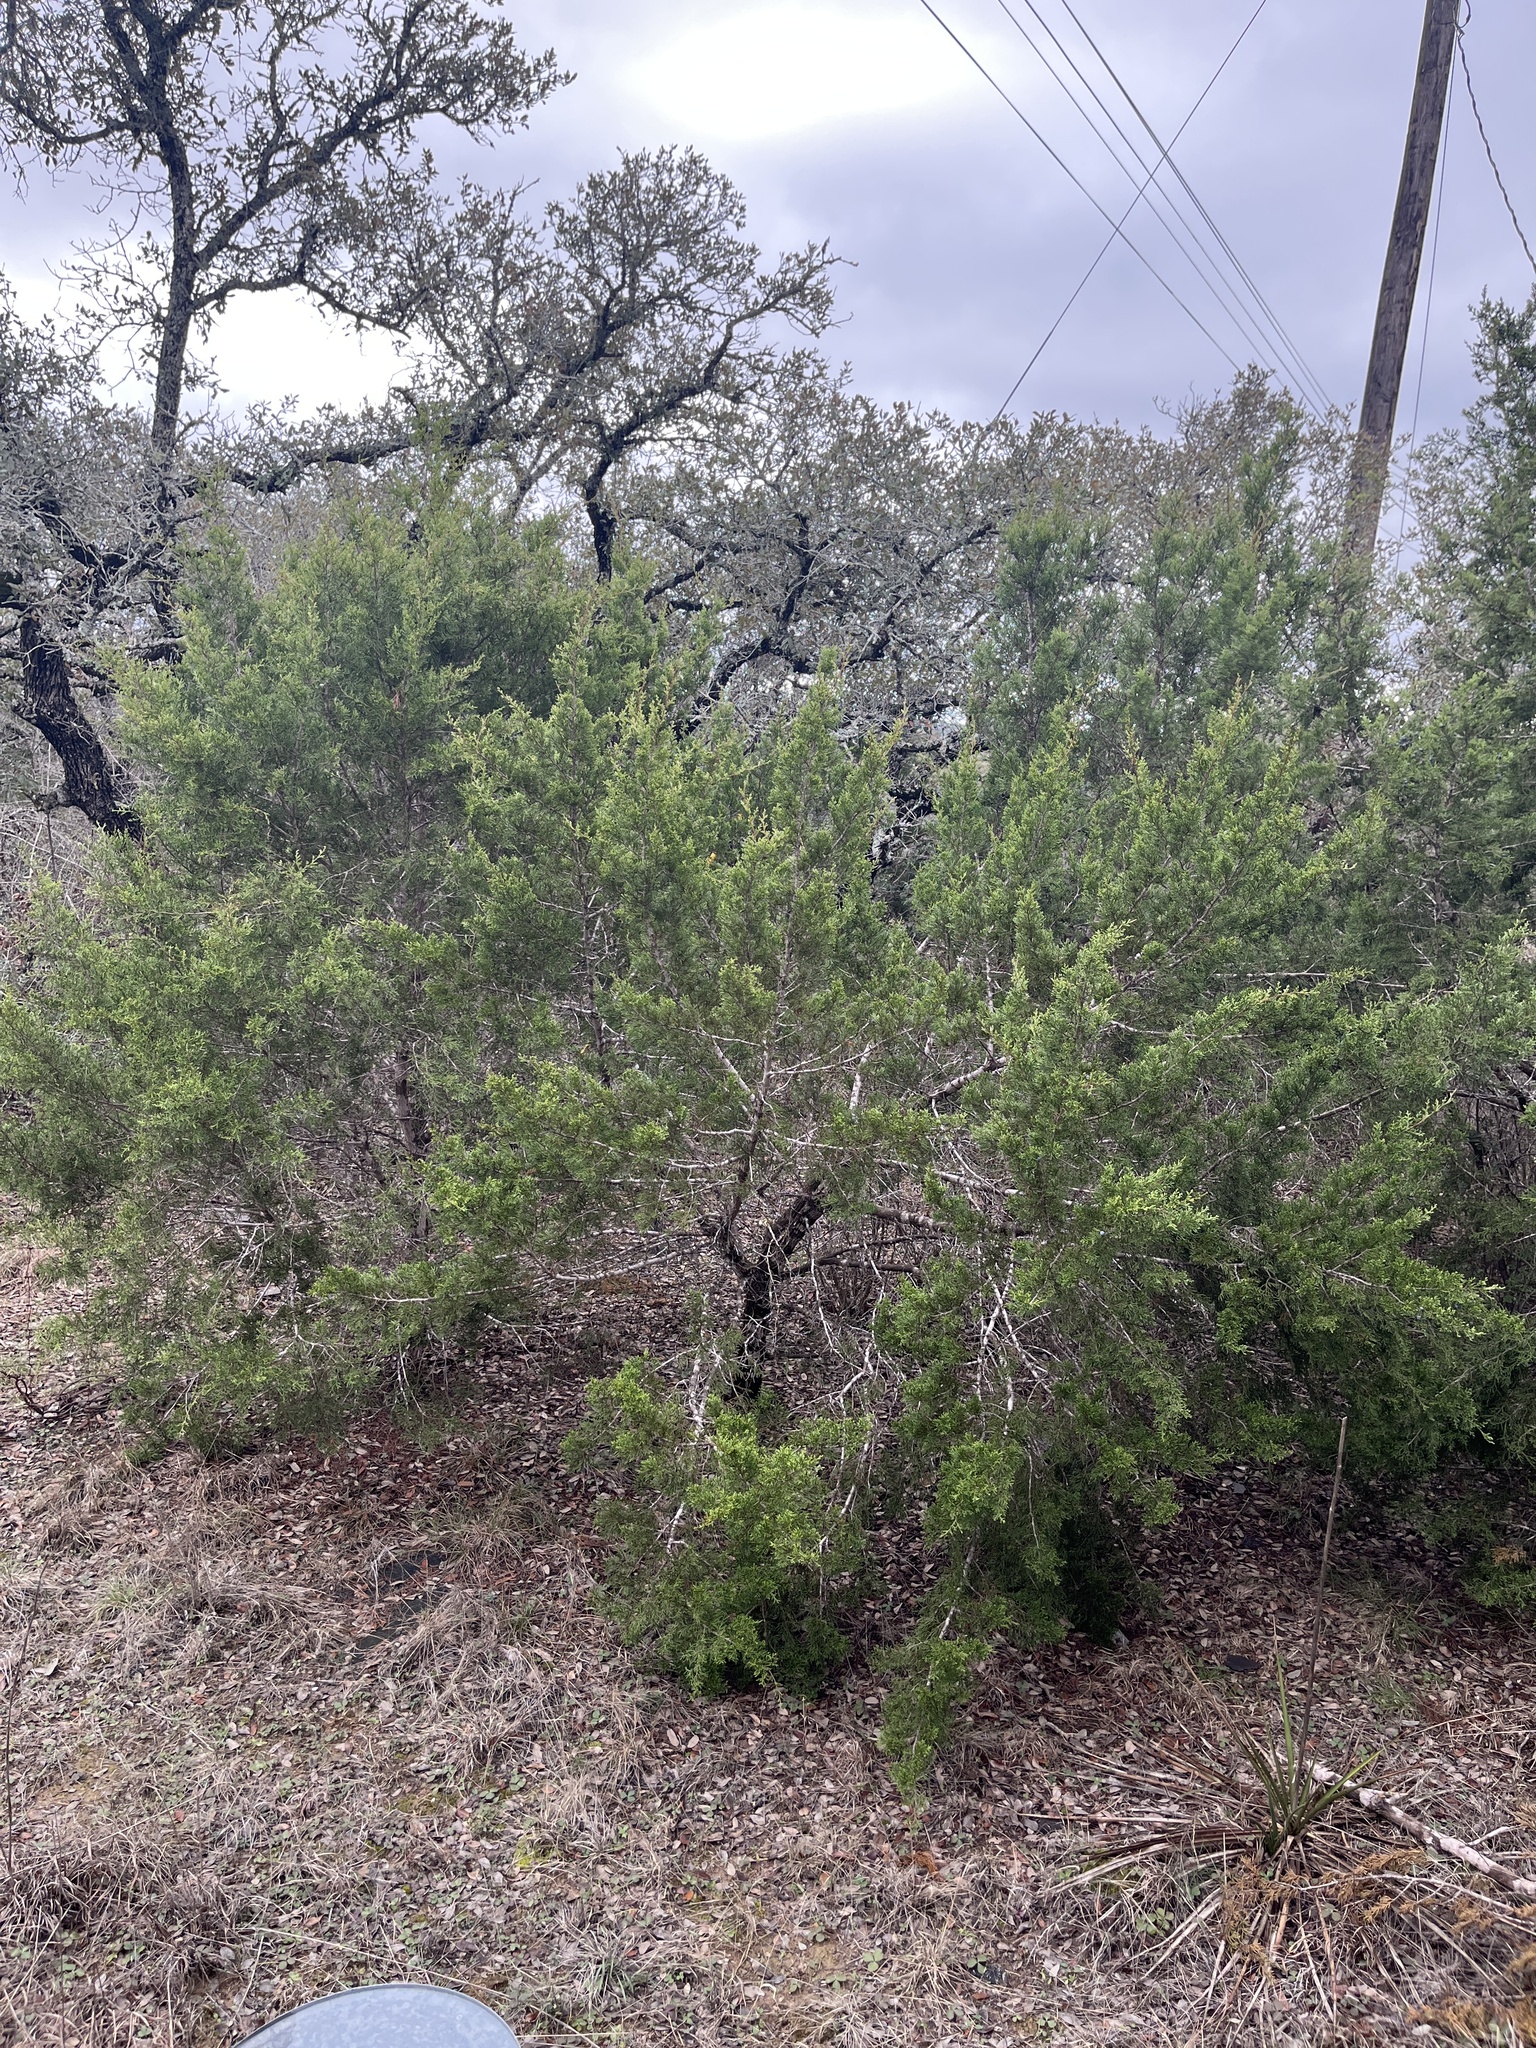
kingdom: Plantae
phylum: Tracheophyta
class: Pinopsida
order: Pinales
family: Cupressaceae
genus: Juniperus
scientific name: Juniperus ashei
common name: Mexican juniper
